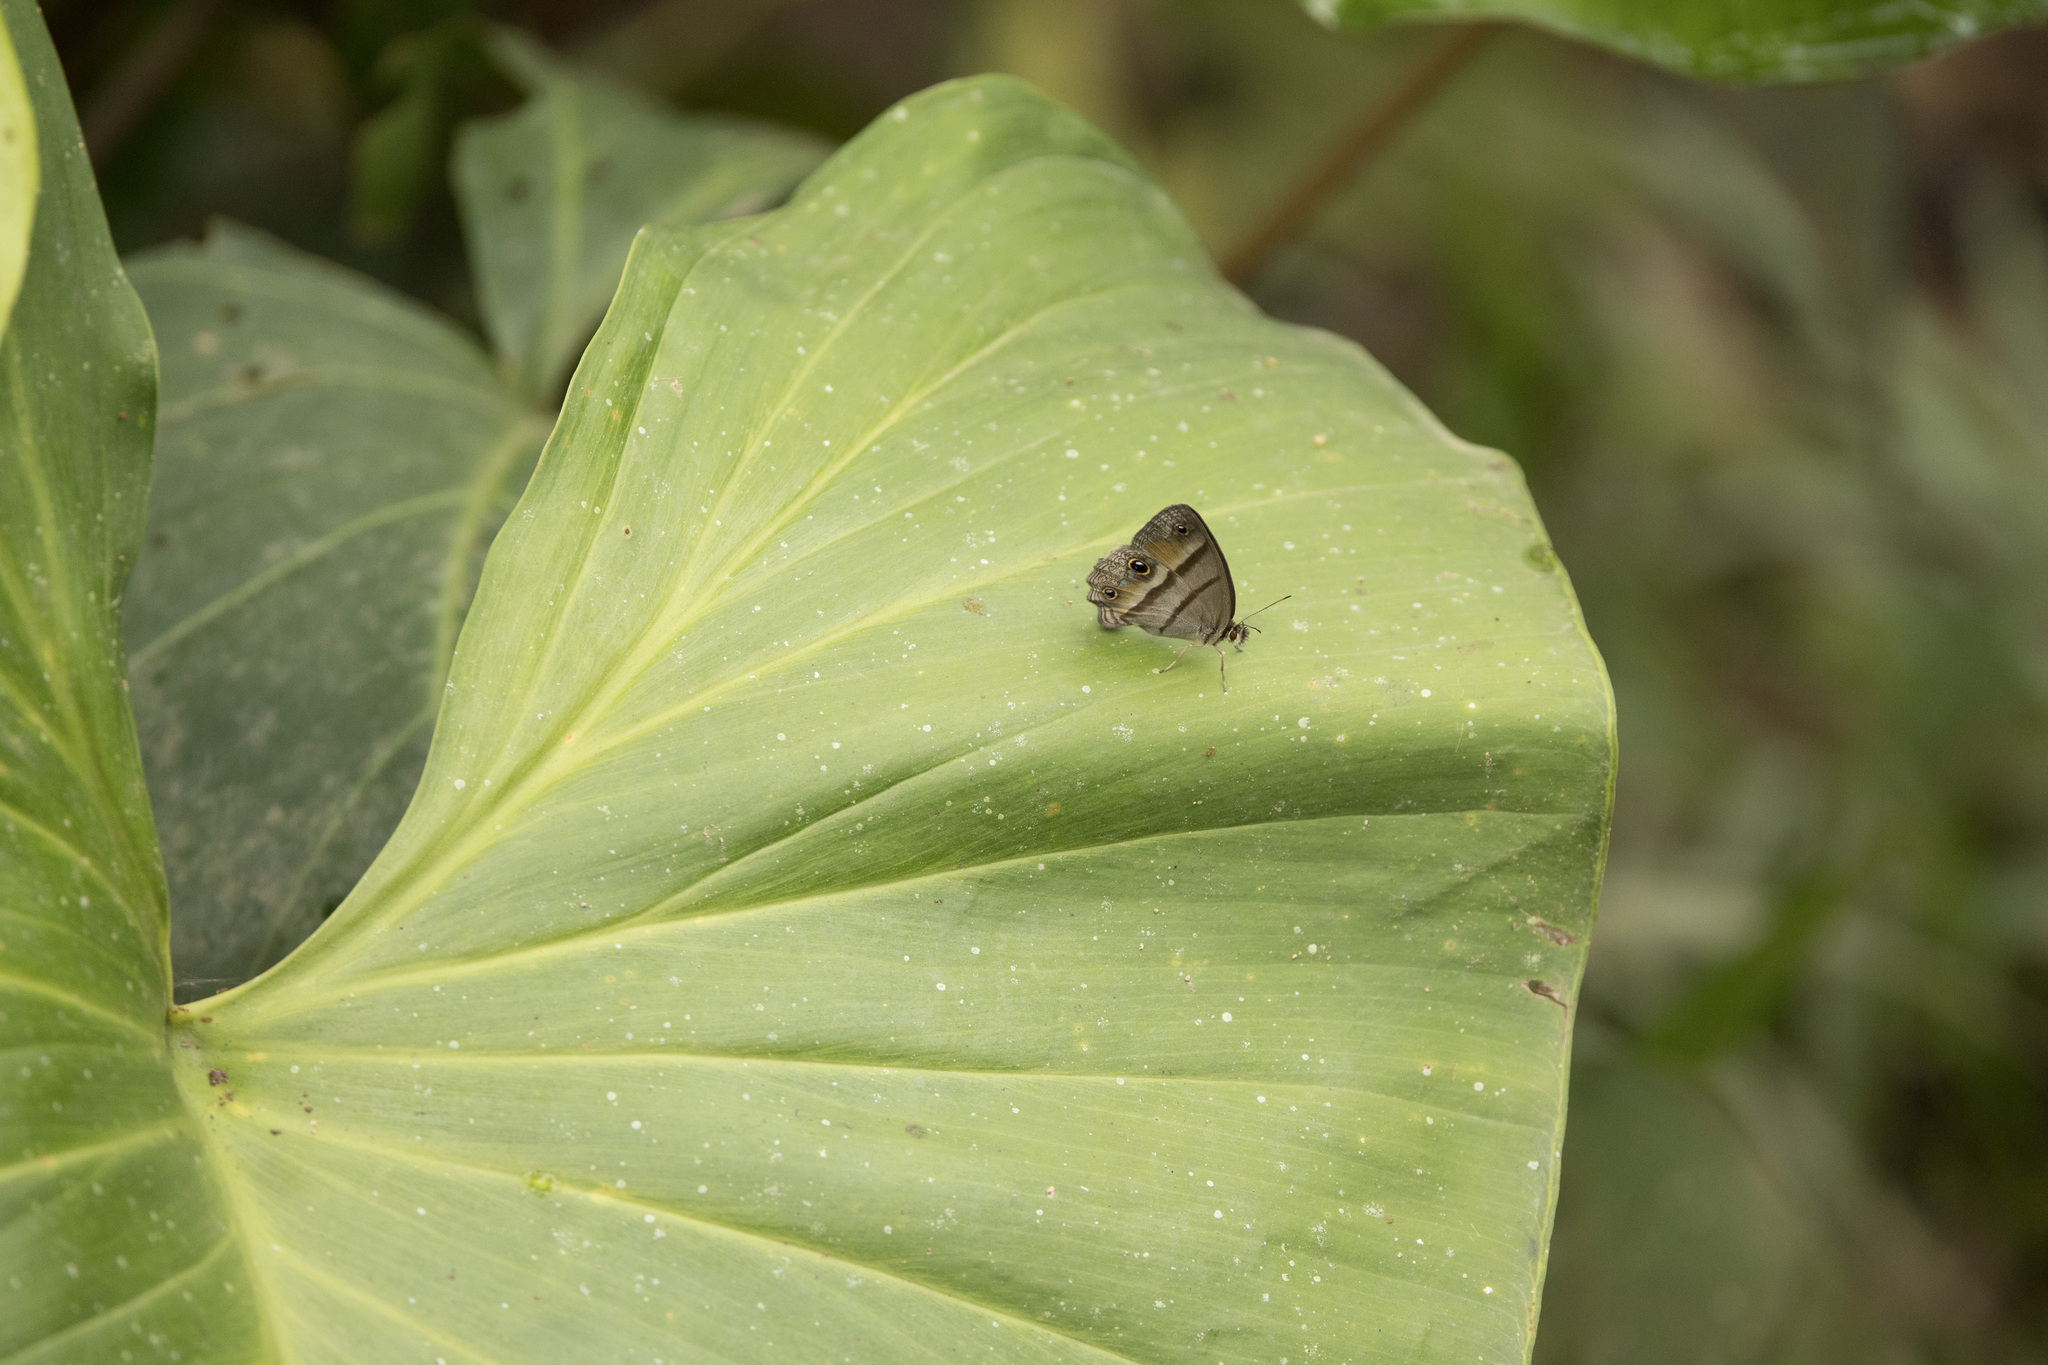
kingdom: Animalia
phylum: Arthropoda
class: Insecta
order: Lepidoptera
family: Nymphalidae
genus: Argyreuptychia
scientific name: Argyreuptychia penelope
